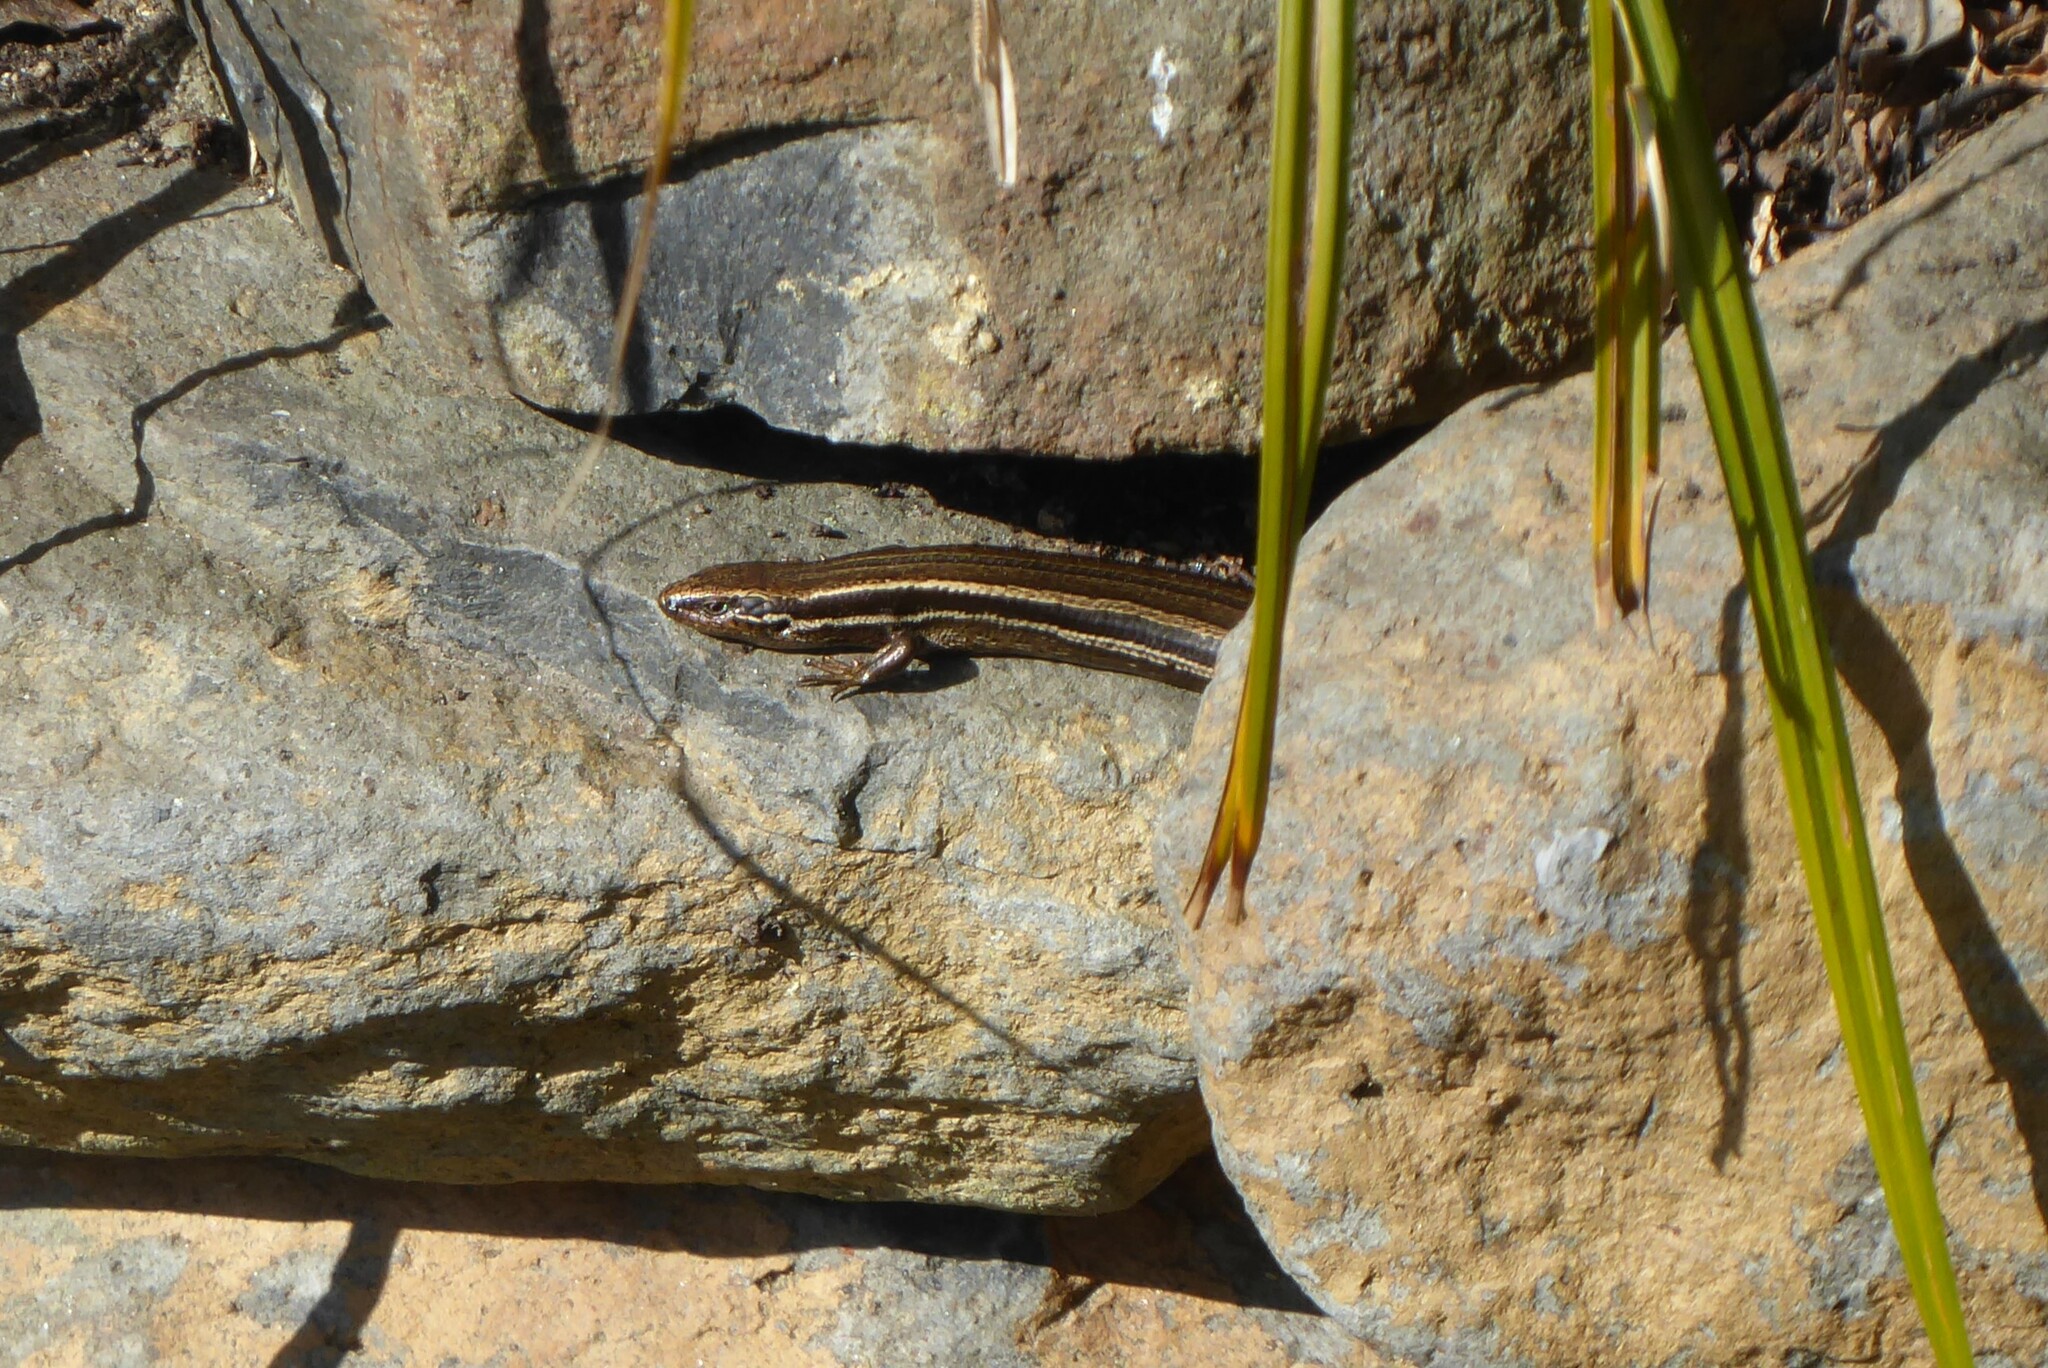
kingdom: Animalia
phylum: Chordata
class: Squamata
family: Scincidae
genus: Oligosoma
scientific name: Oligosoma polychroma
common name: Common new zealand skink
